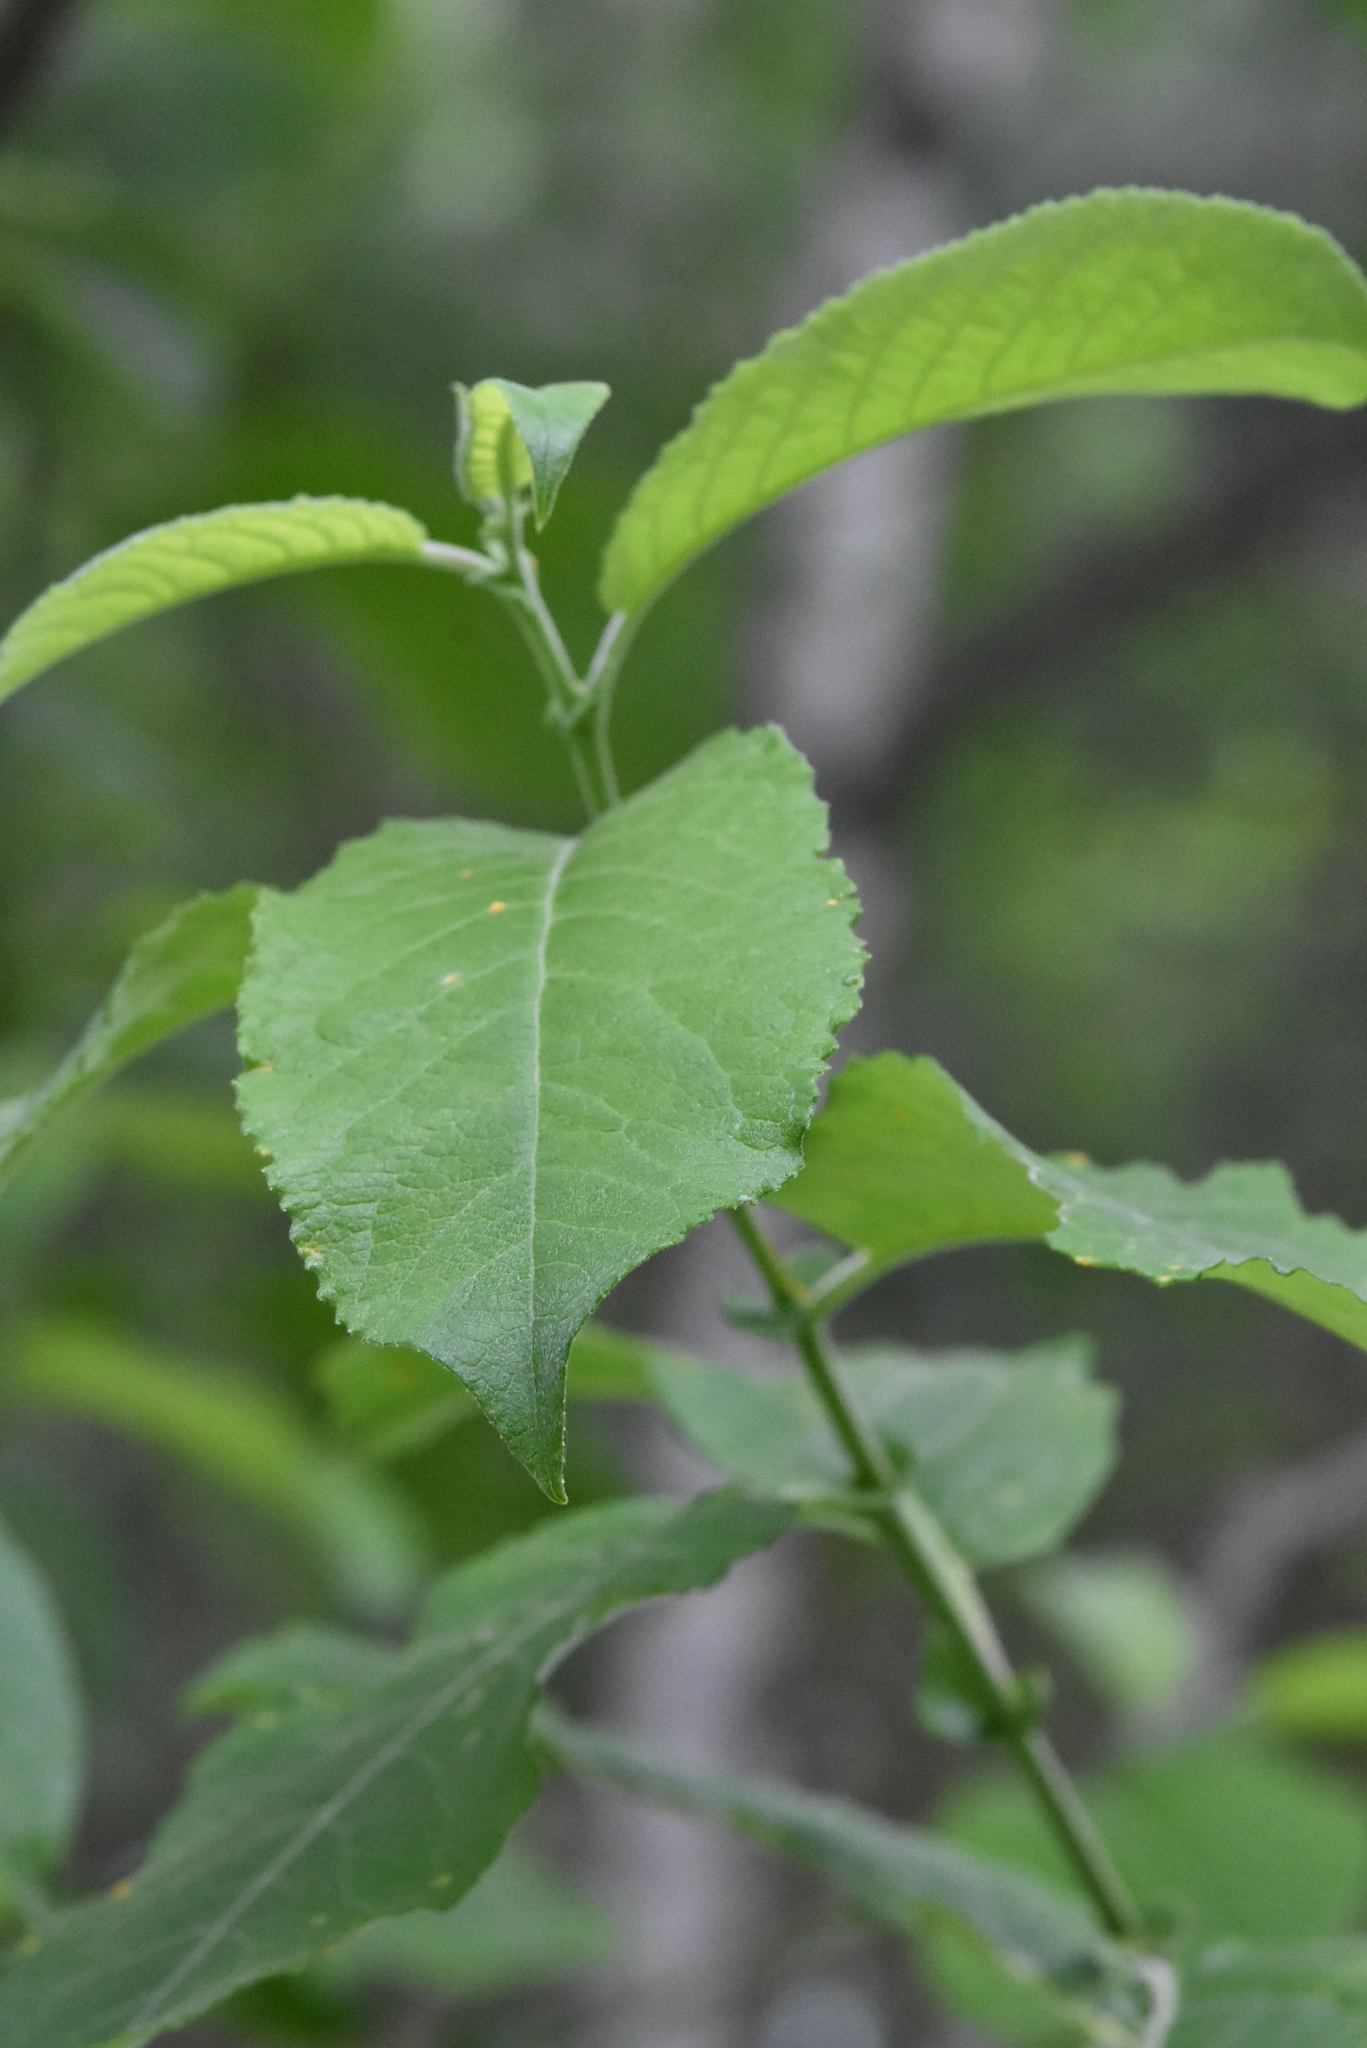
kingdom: Plantae
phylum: Tracheophyta
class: Magnoliopsida
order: Malpighiales
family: Salicaceae
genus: Salix
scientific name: Salix caprea
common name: Goat willow
